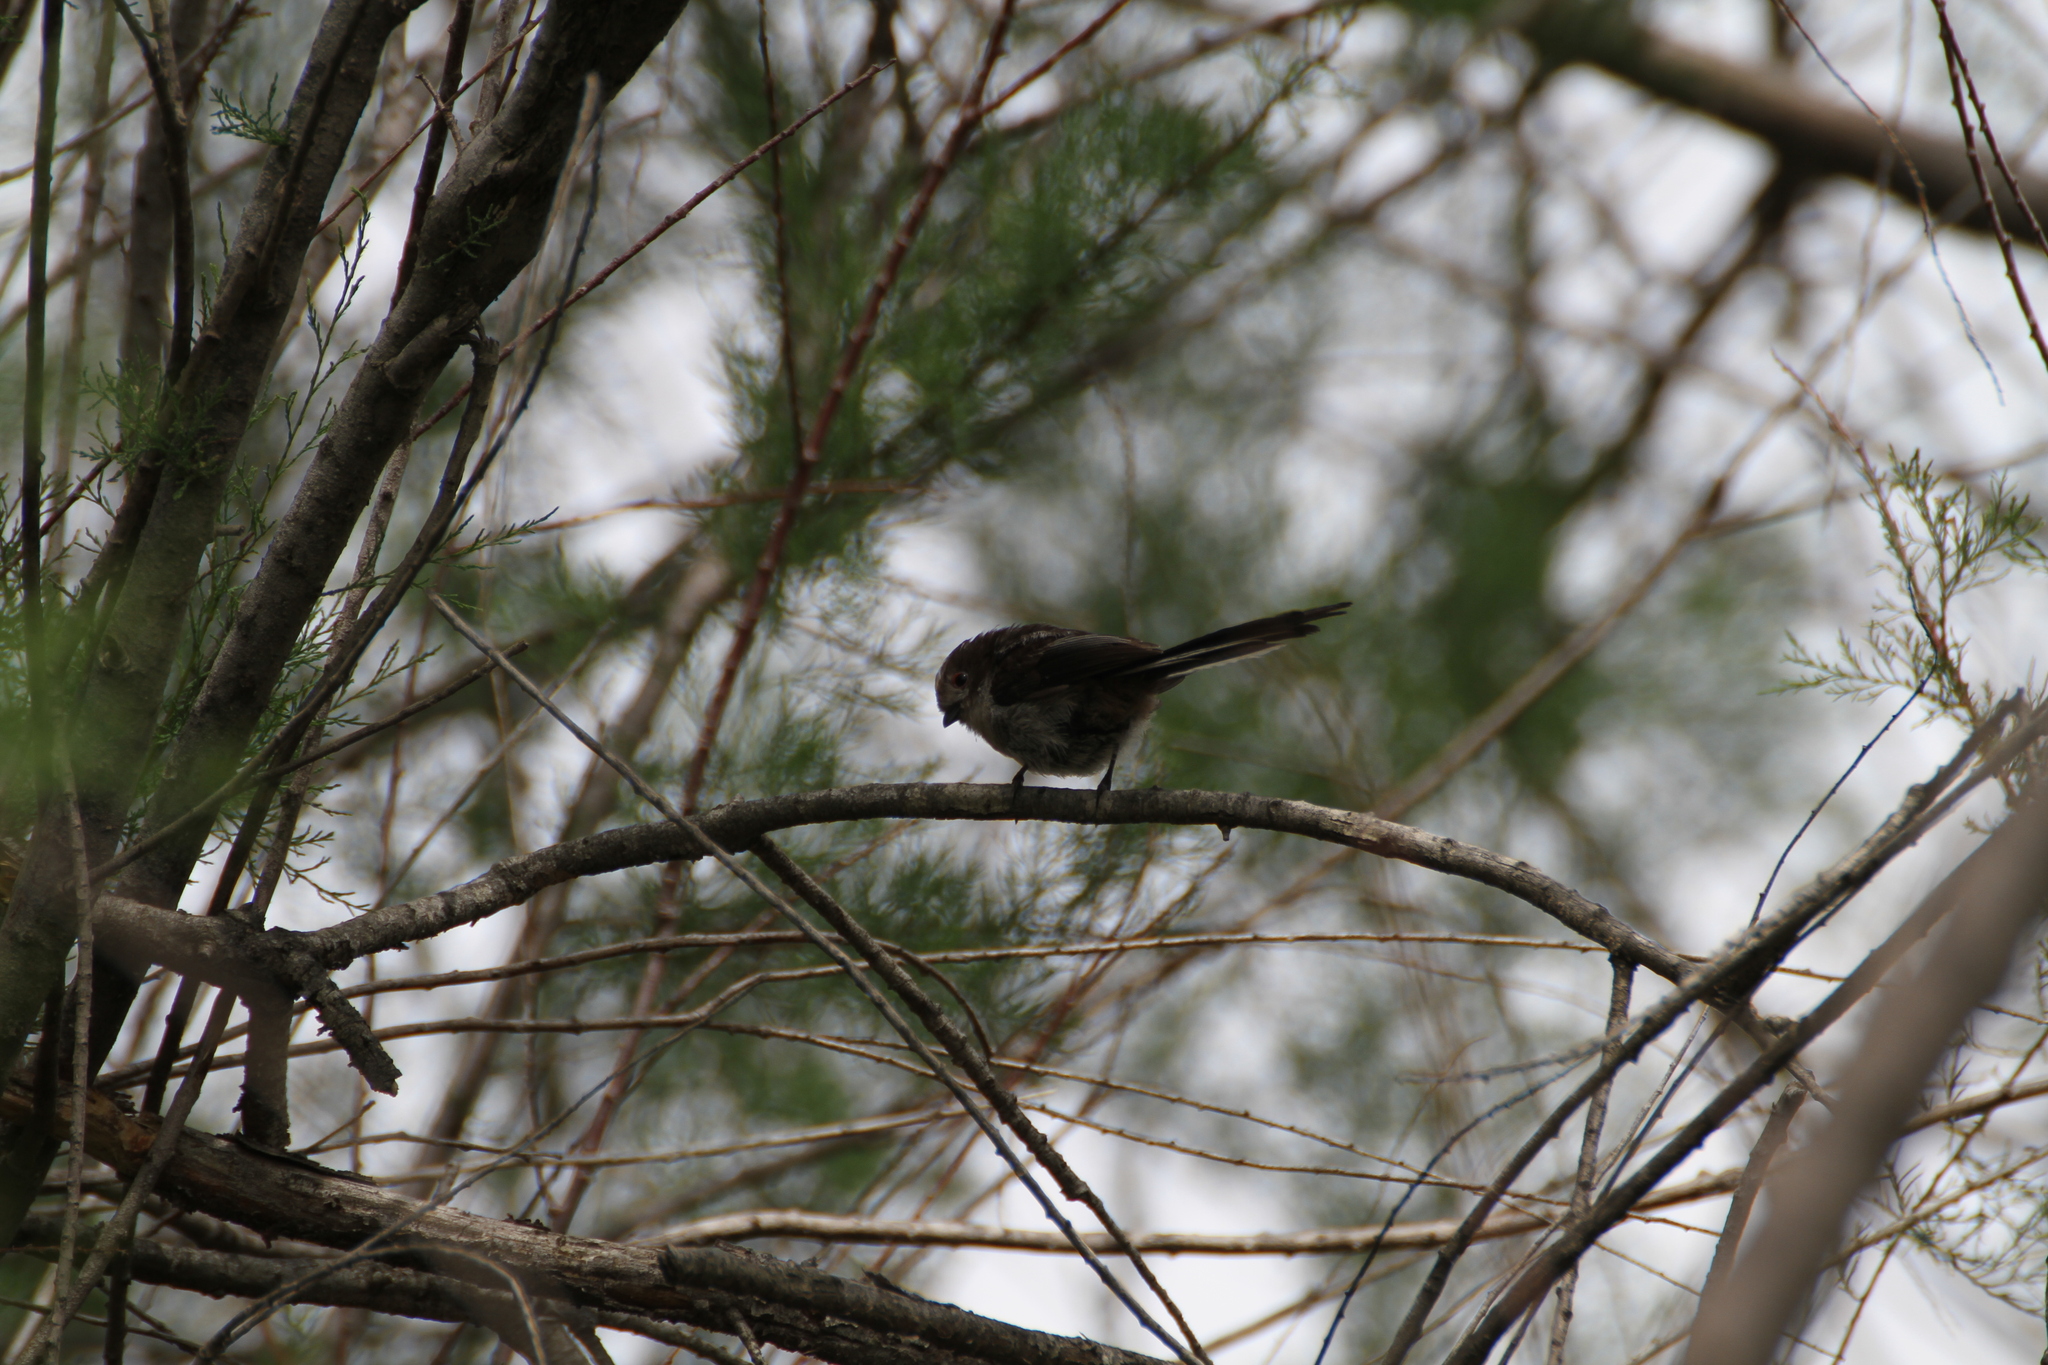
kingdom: Animalia
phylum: Chordata
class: Aves
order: Passeriformes
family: Aegithalidae
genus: Aegithalos
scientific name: Aegithalos caudatus
